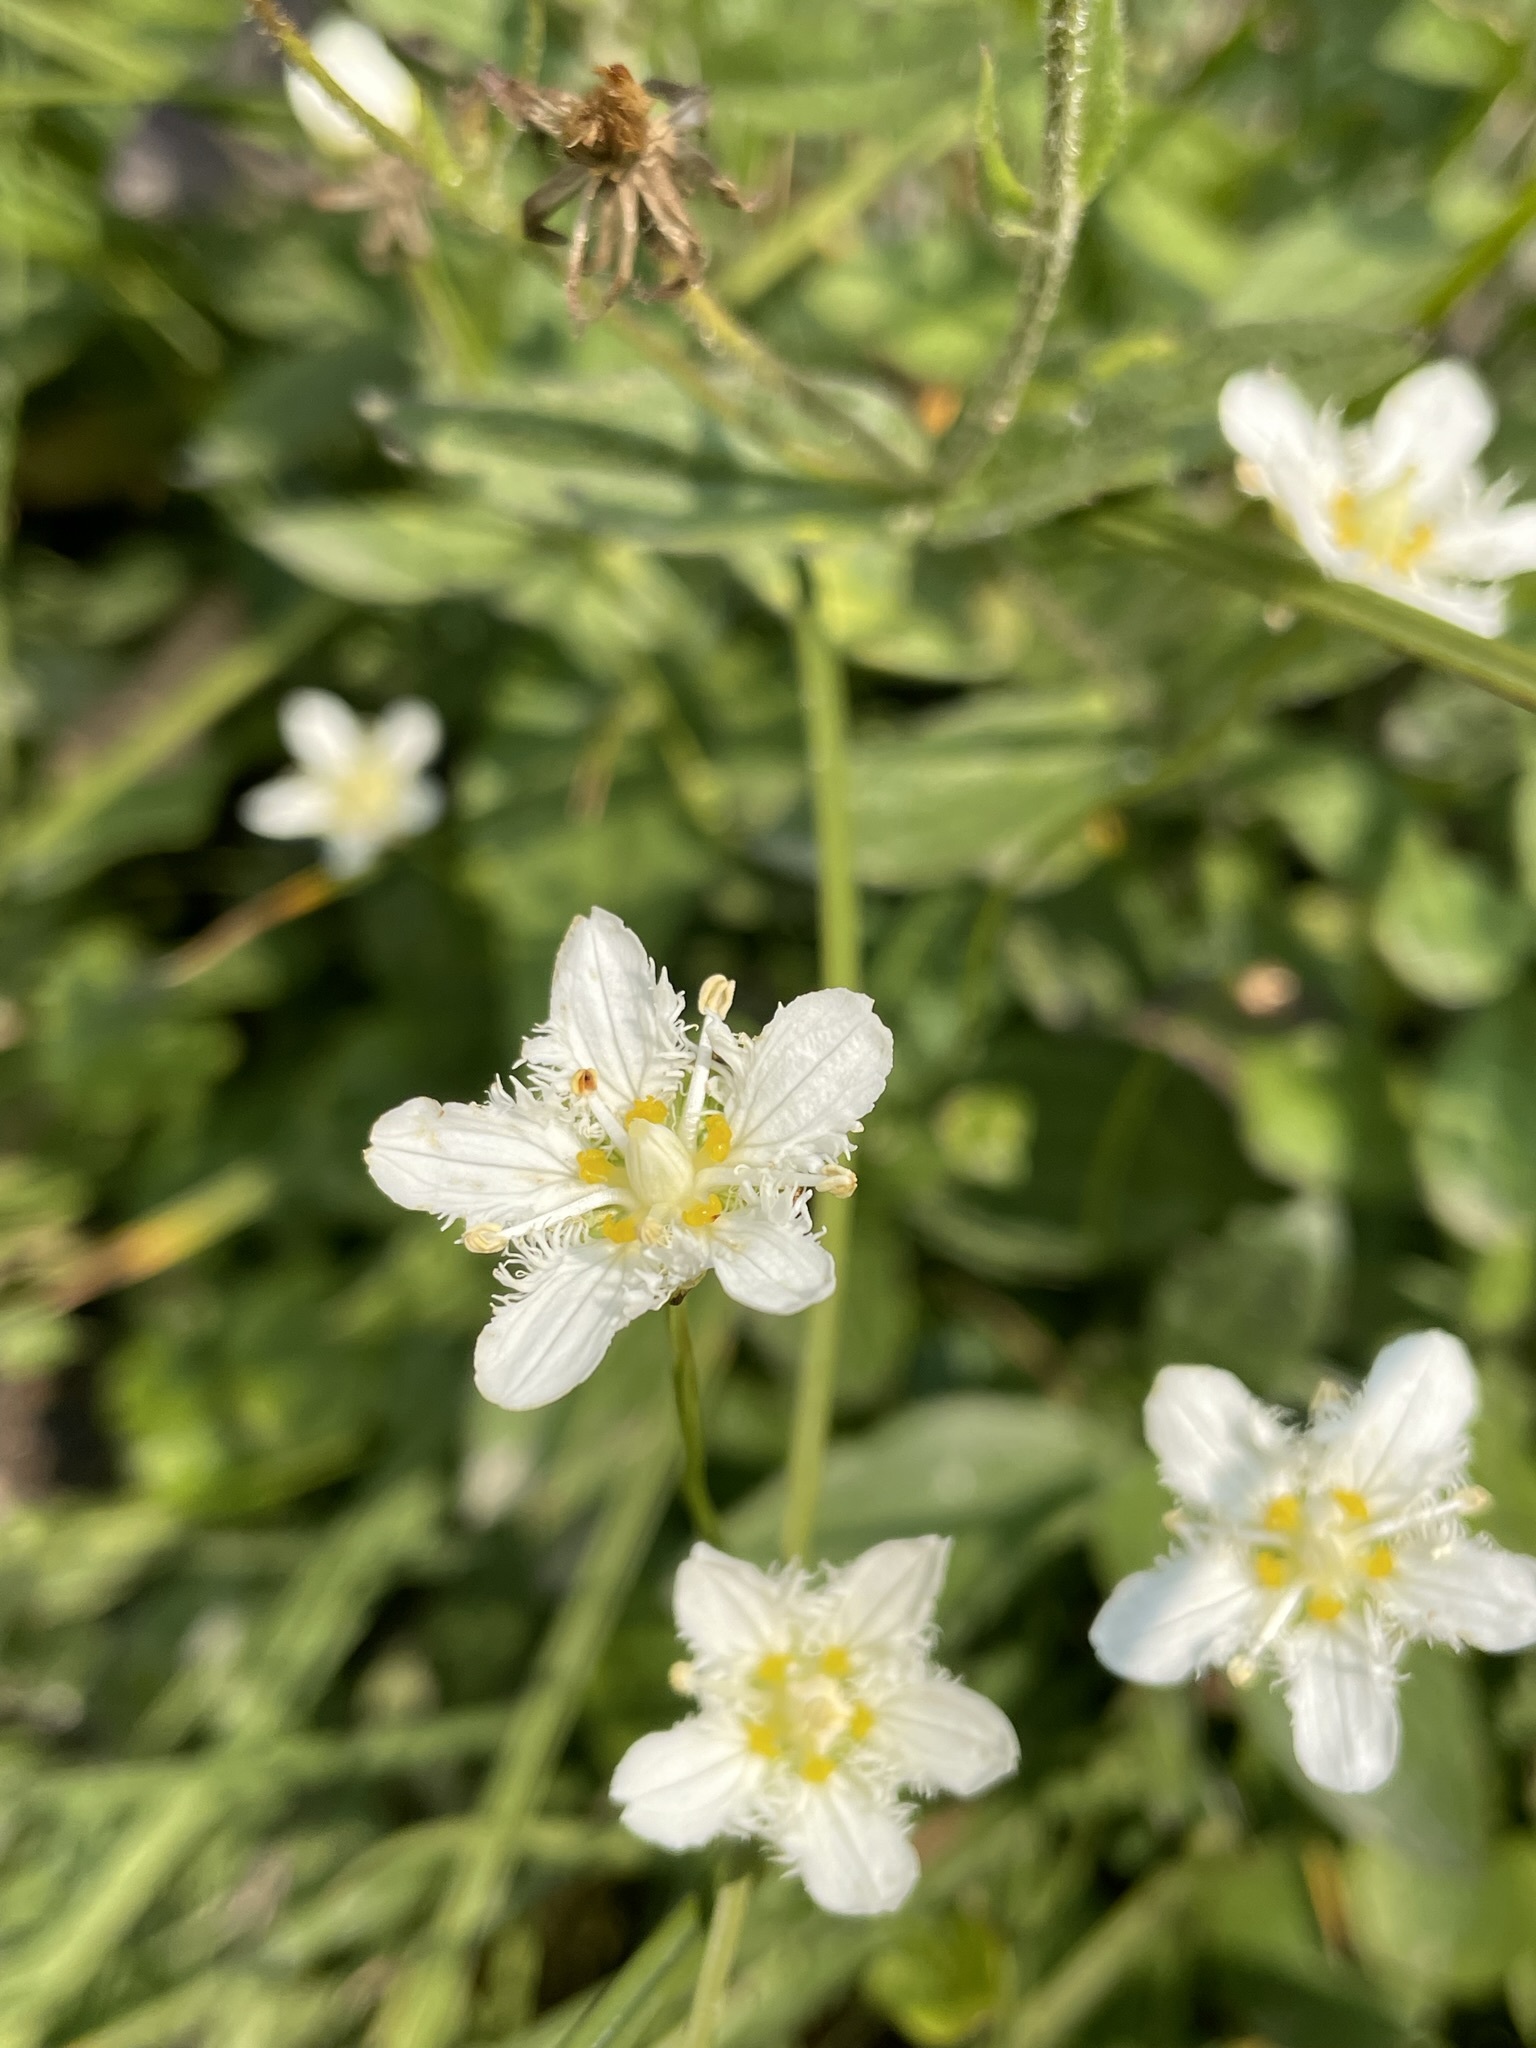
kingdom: Plantae
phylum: Tracheophyta
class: Magnoliopsida
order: Celastrales
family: Parnassiaceae
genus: Parnassia
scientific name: Parnassia fimbriata
